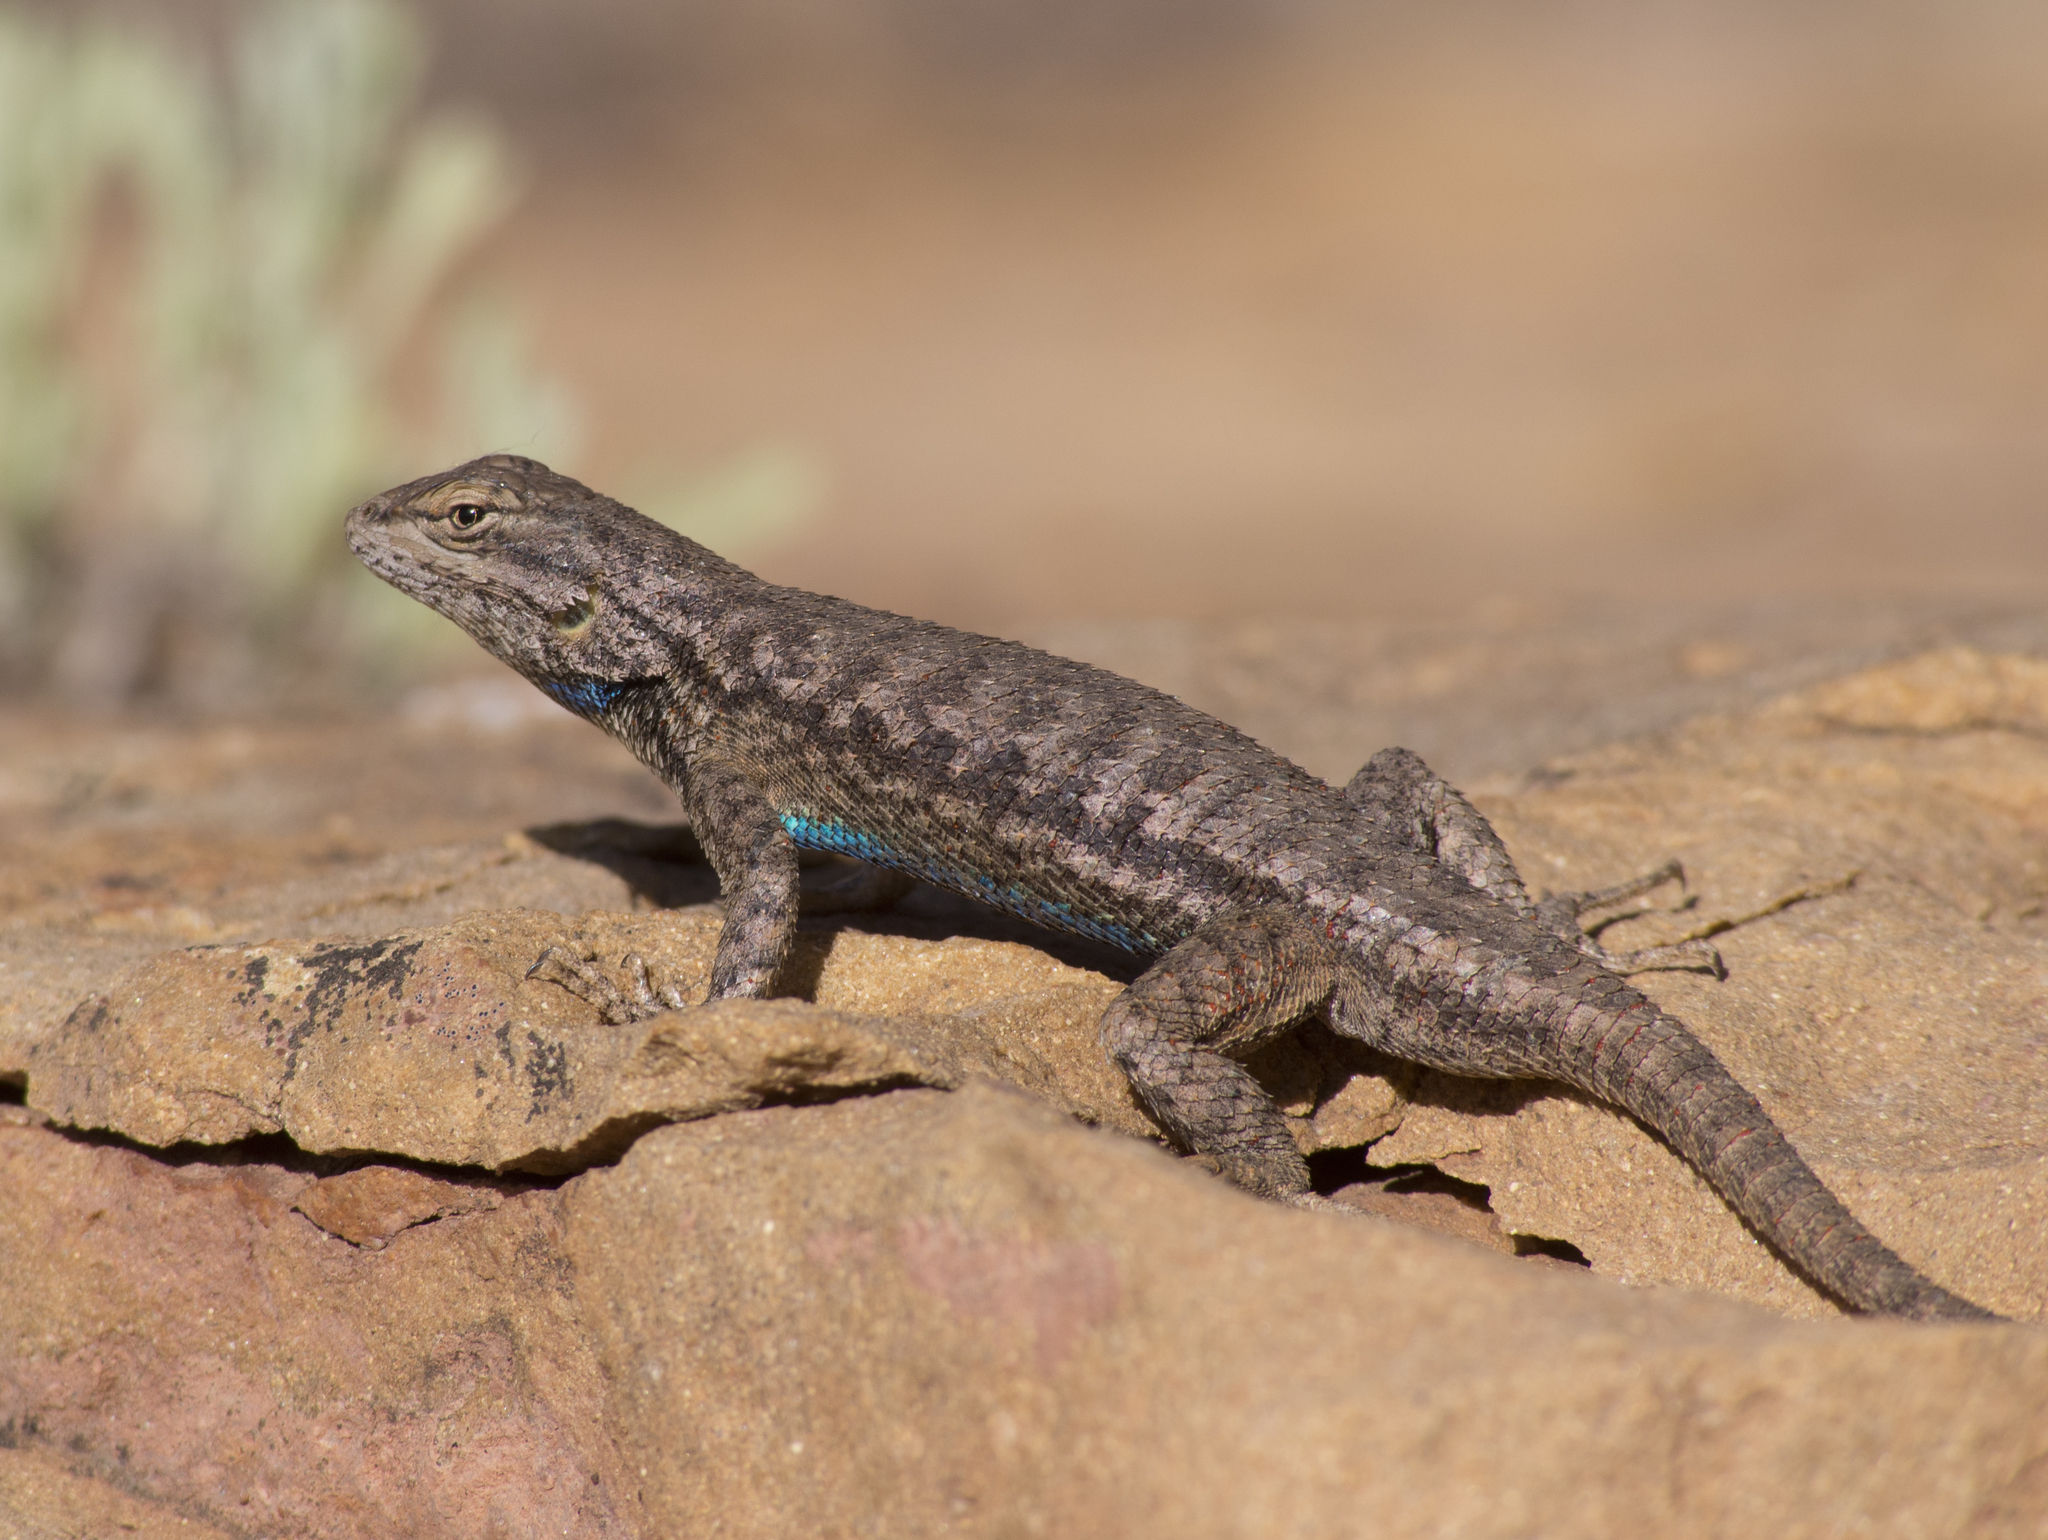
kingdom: Animalia
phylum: Chordata
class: Squamata
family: Phrynosomatidae
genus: Sceloporus
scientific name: Sceloporus tristichus
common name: Plateau fence lizard
